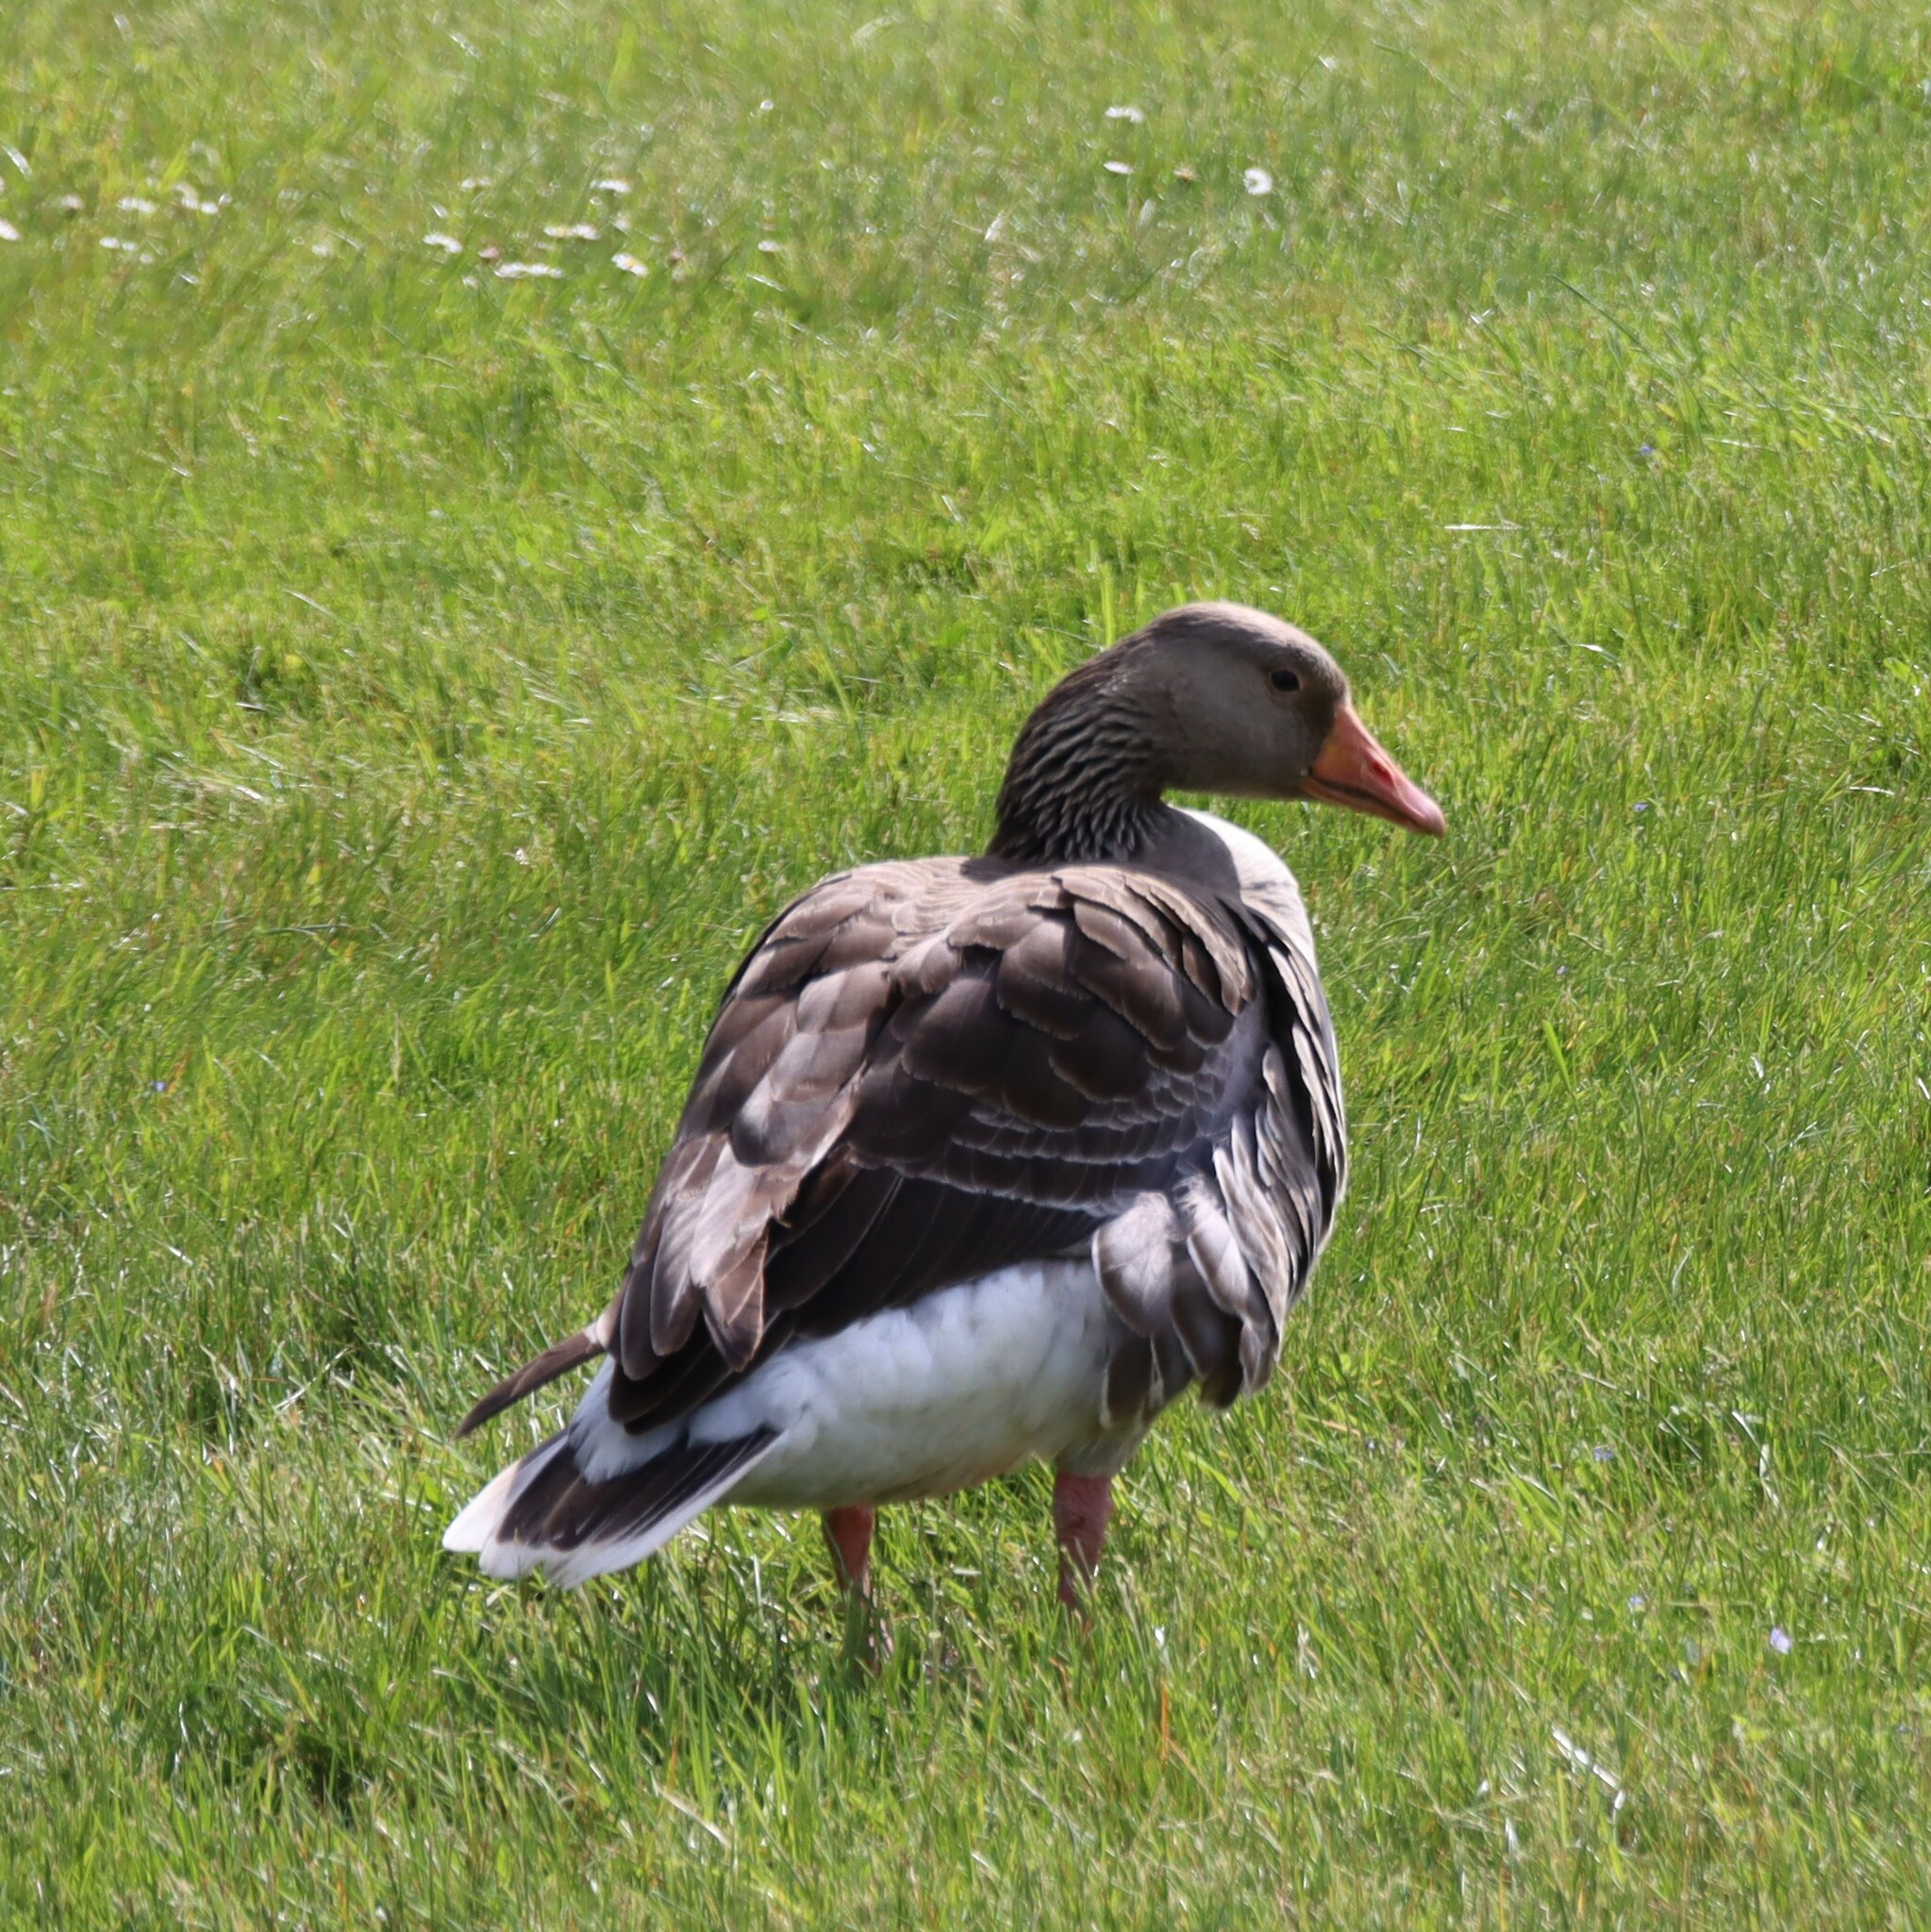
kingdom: Animalia
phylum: Chordata
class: Aves
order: Anseriformes
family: Anatidae
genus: Anser
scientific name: Anser anser
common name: Greylag goose
